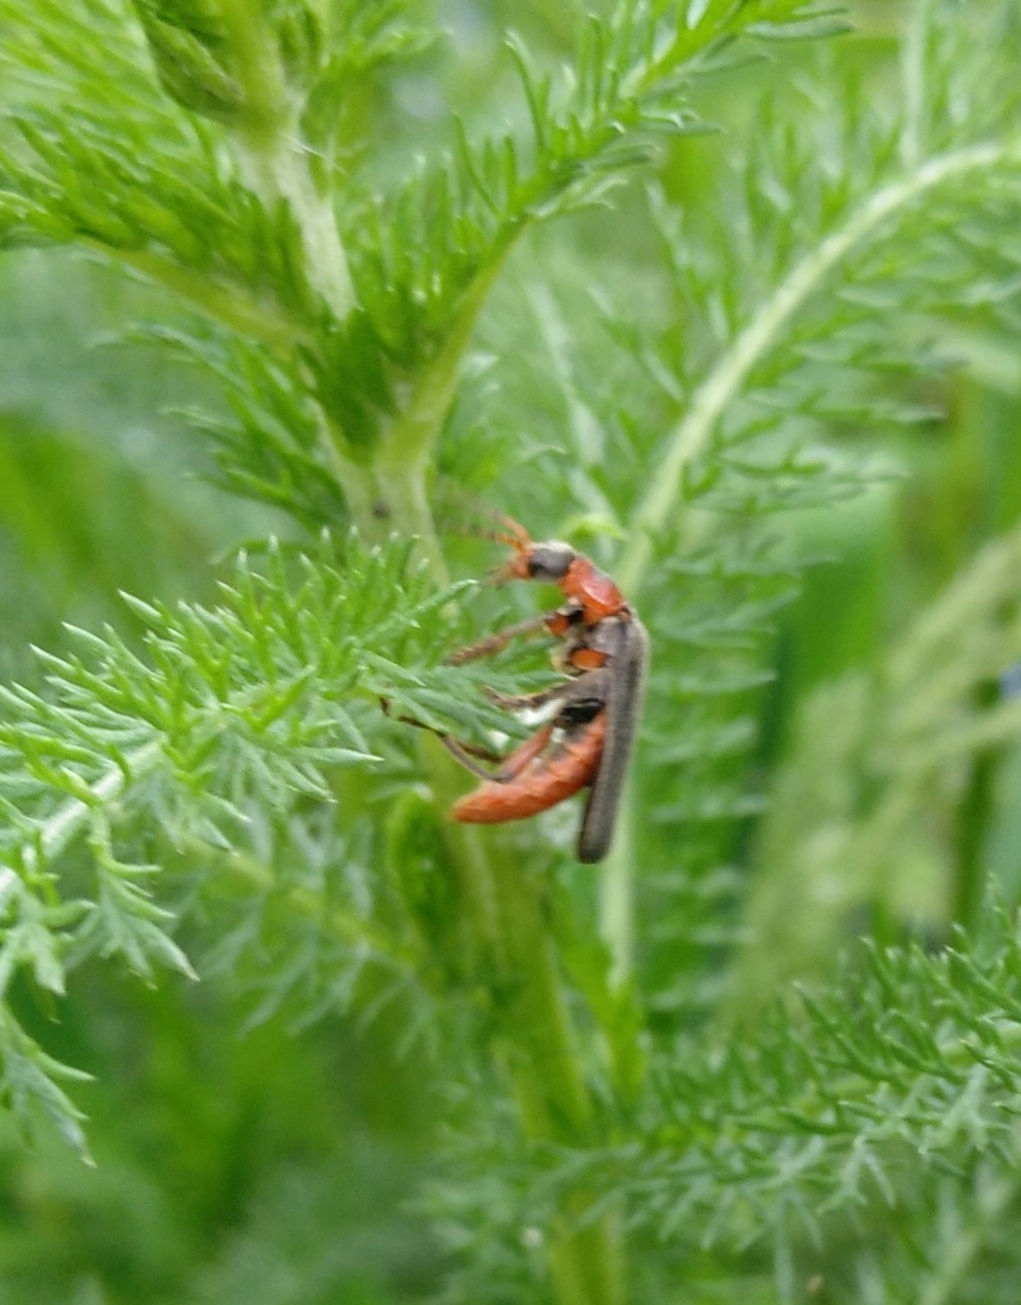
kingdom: Animalia
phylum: Arthropoda
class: Insecta
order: Coleoptera
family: Cantharidae
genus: Cantharis
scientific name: Cantharis rustica
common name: Soldier beetle
